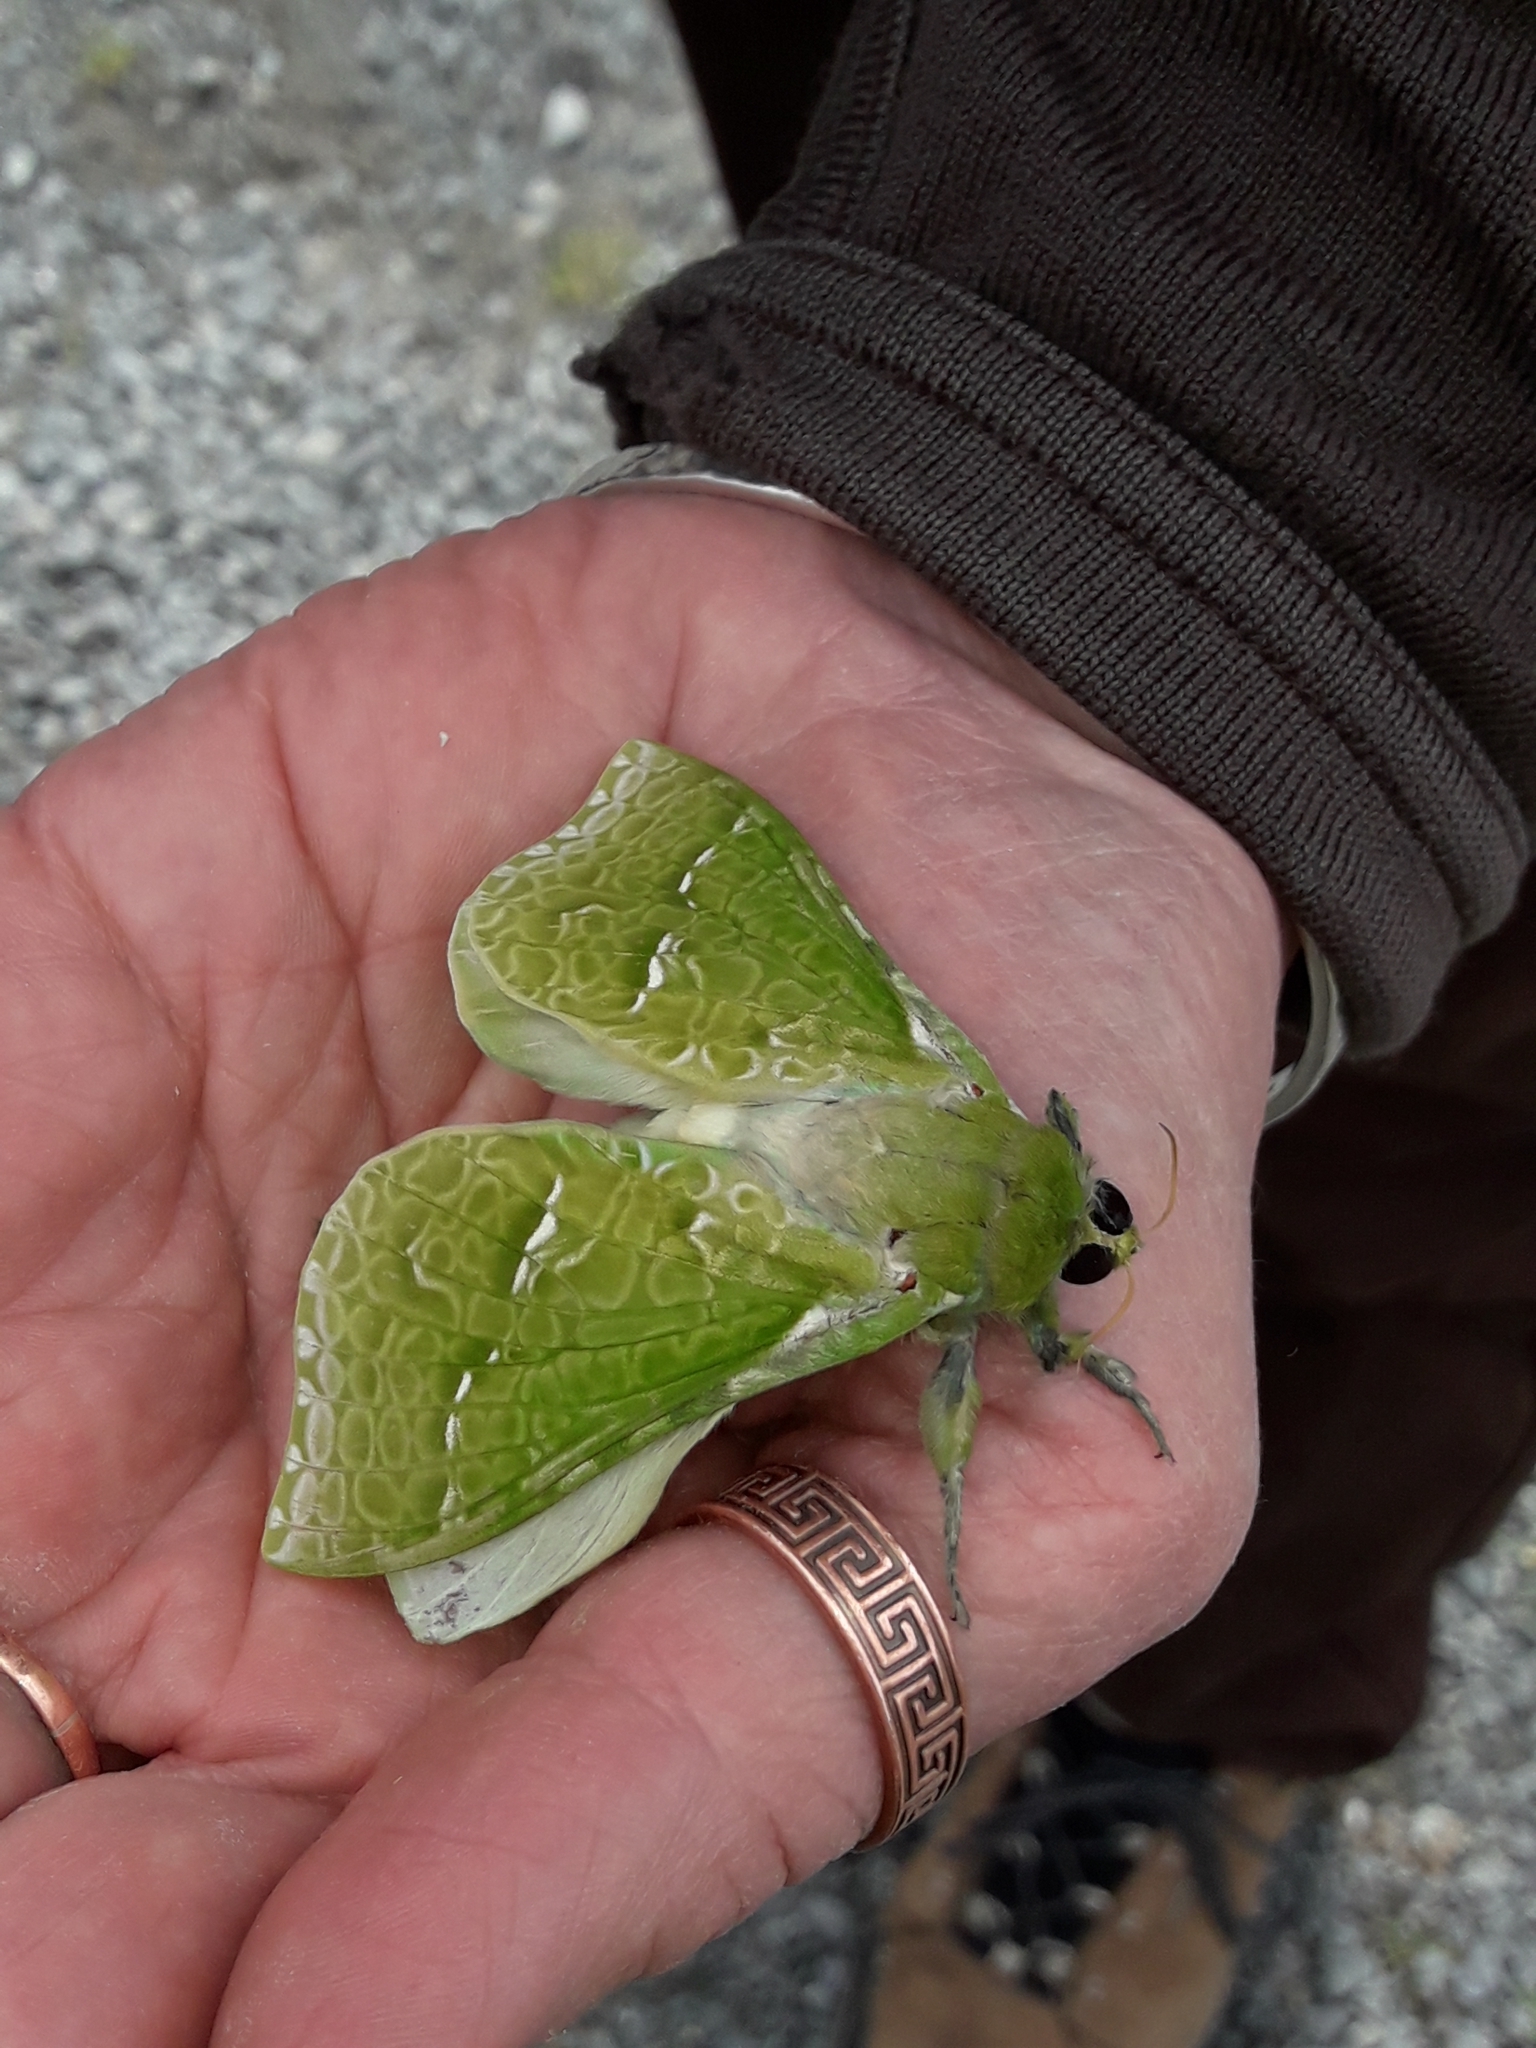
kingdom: Animalia
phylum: Arthropoda
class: Insecta
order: Lepidoptera
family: Hepialidae
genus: Aenetus
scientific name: Aenetus virescens
